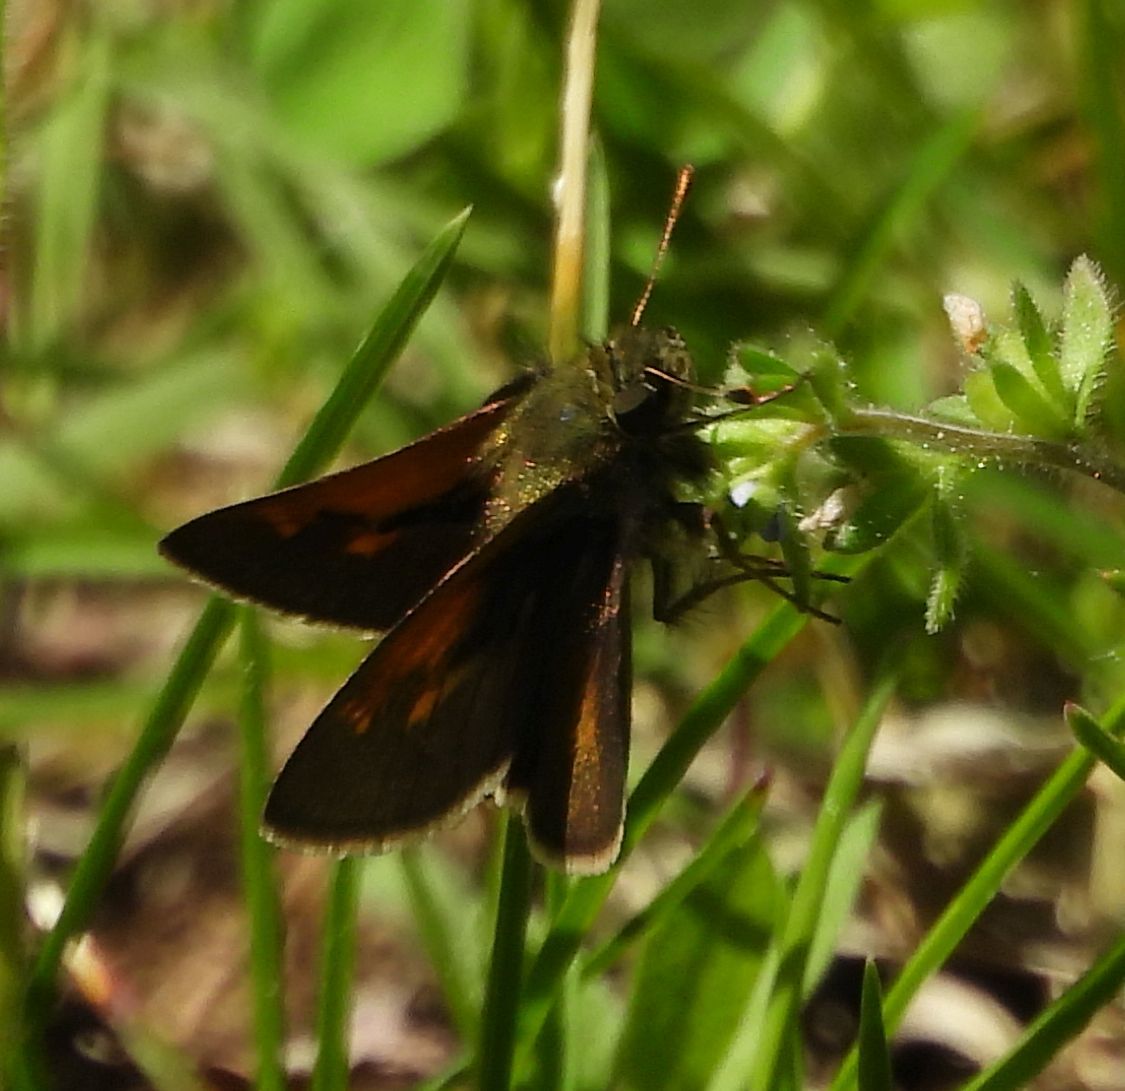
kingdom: Animalia
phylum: Arthropoda
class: Insecta
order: Lepidoptera
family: Hesperiidae
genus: Polites
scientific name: Polites themistocles
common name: Tawny-edged skipper
